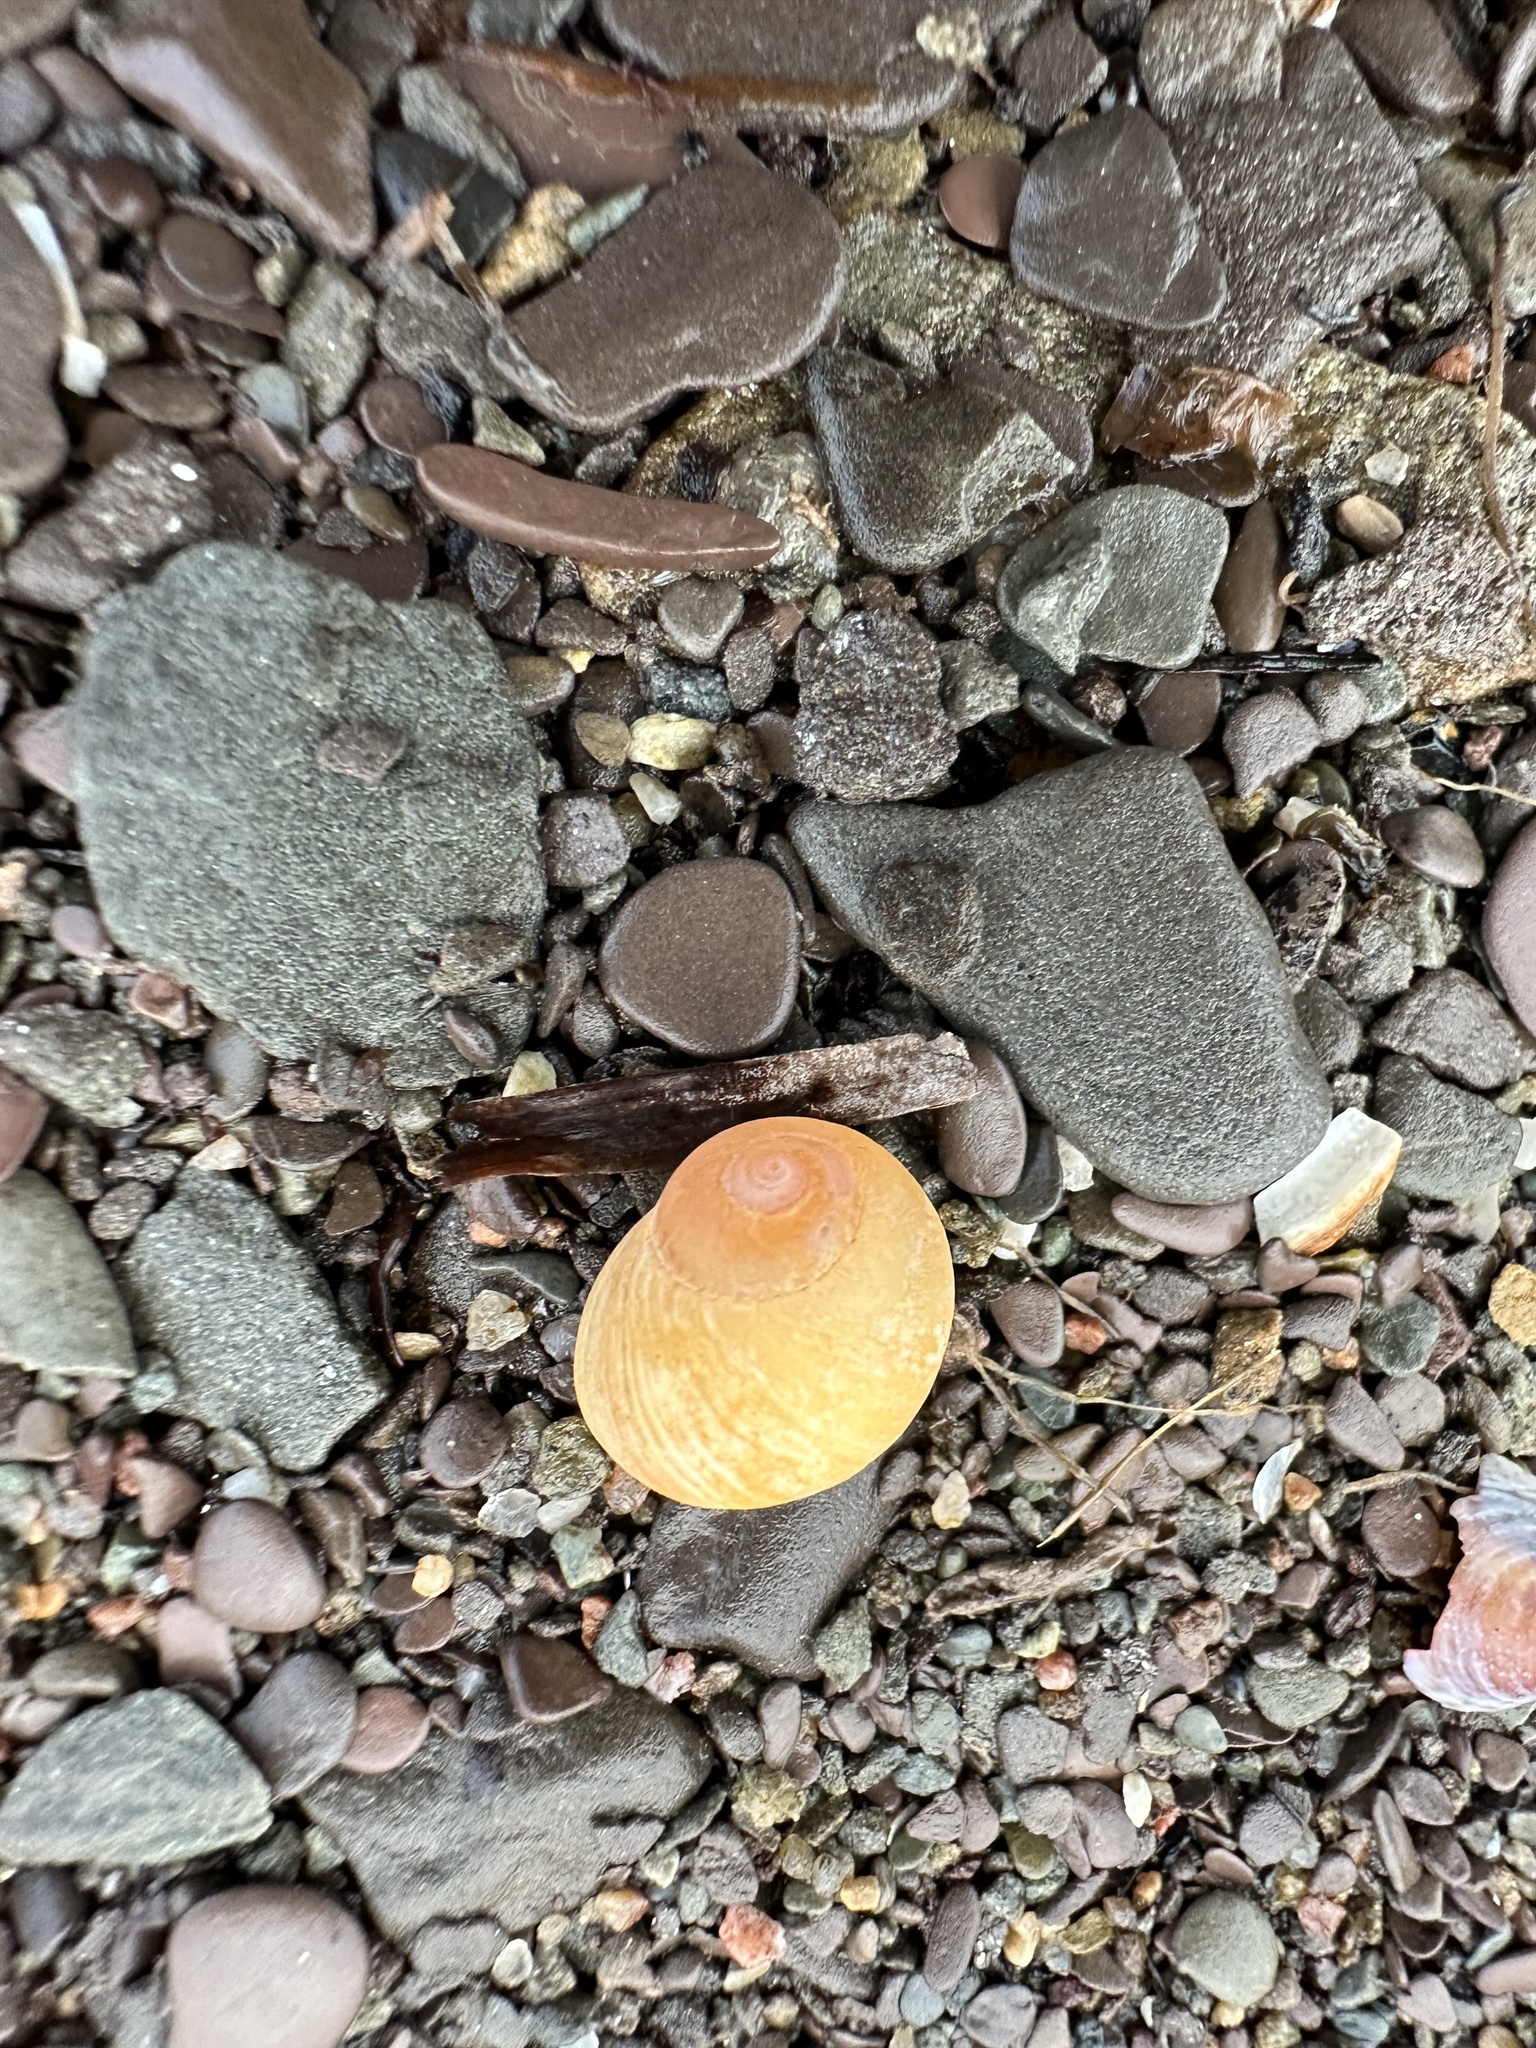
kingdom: Animalia
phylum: Mollusca
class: Gastropoda
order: Littorinimorpha
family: Littorinidae
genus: Littorina
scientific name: Littorina obtusata
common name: Flat periwinkle
